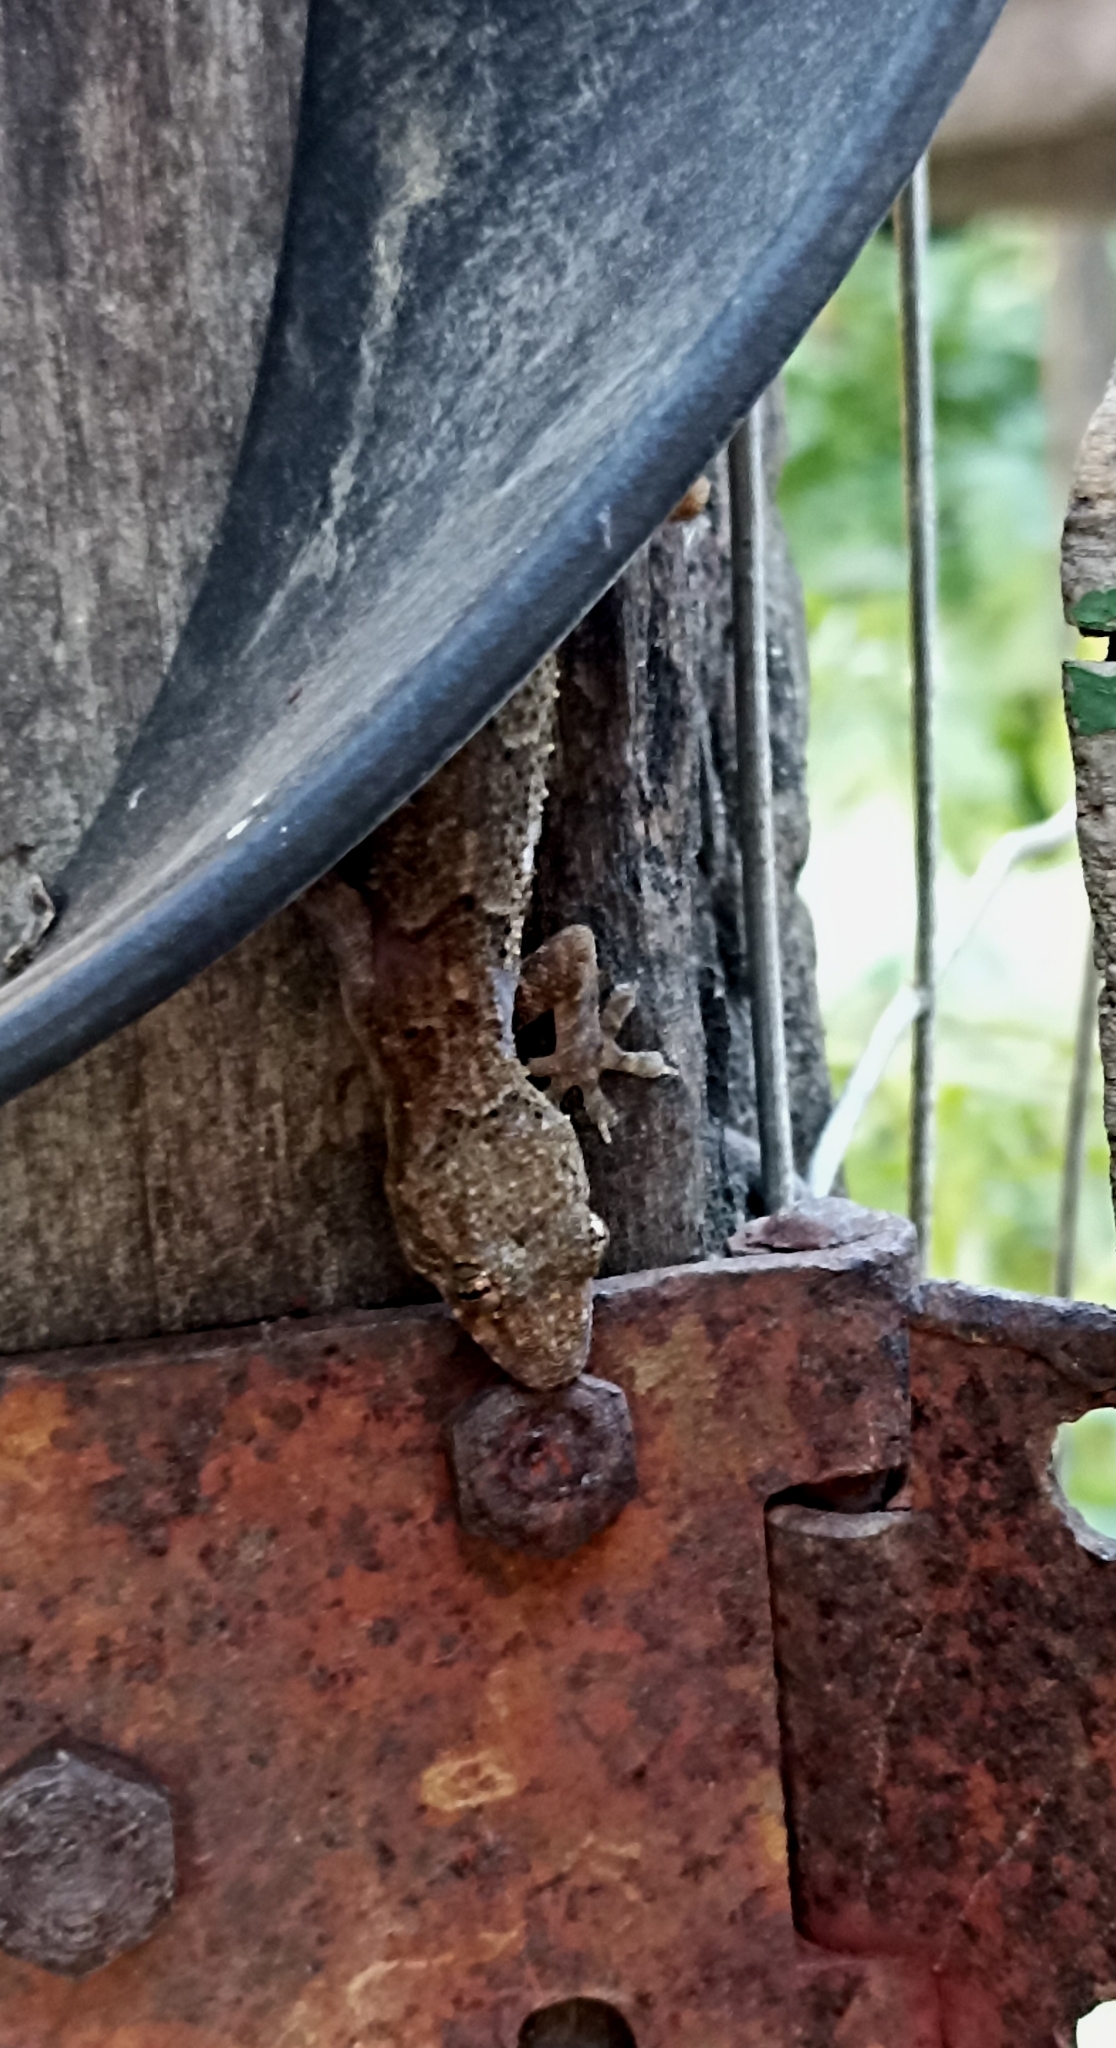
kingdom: Animalia
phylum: Chordata
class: Squamata
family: Gekkonidae
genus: Hemidactylus
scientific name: Hemidactylus mabouia
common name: House gecko
